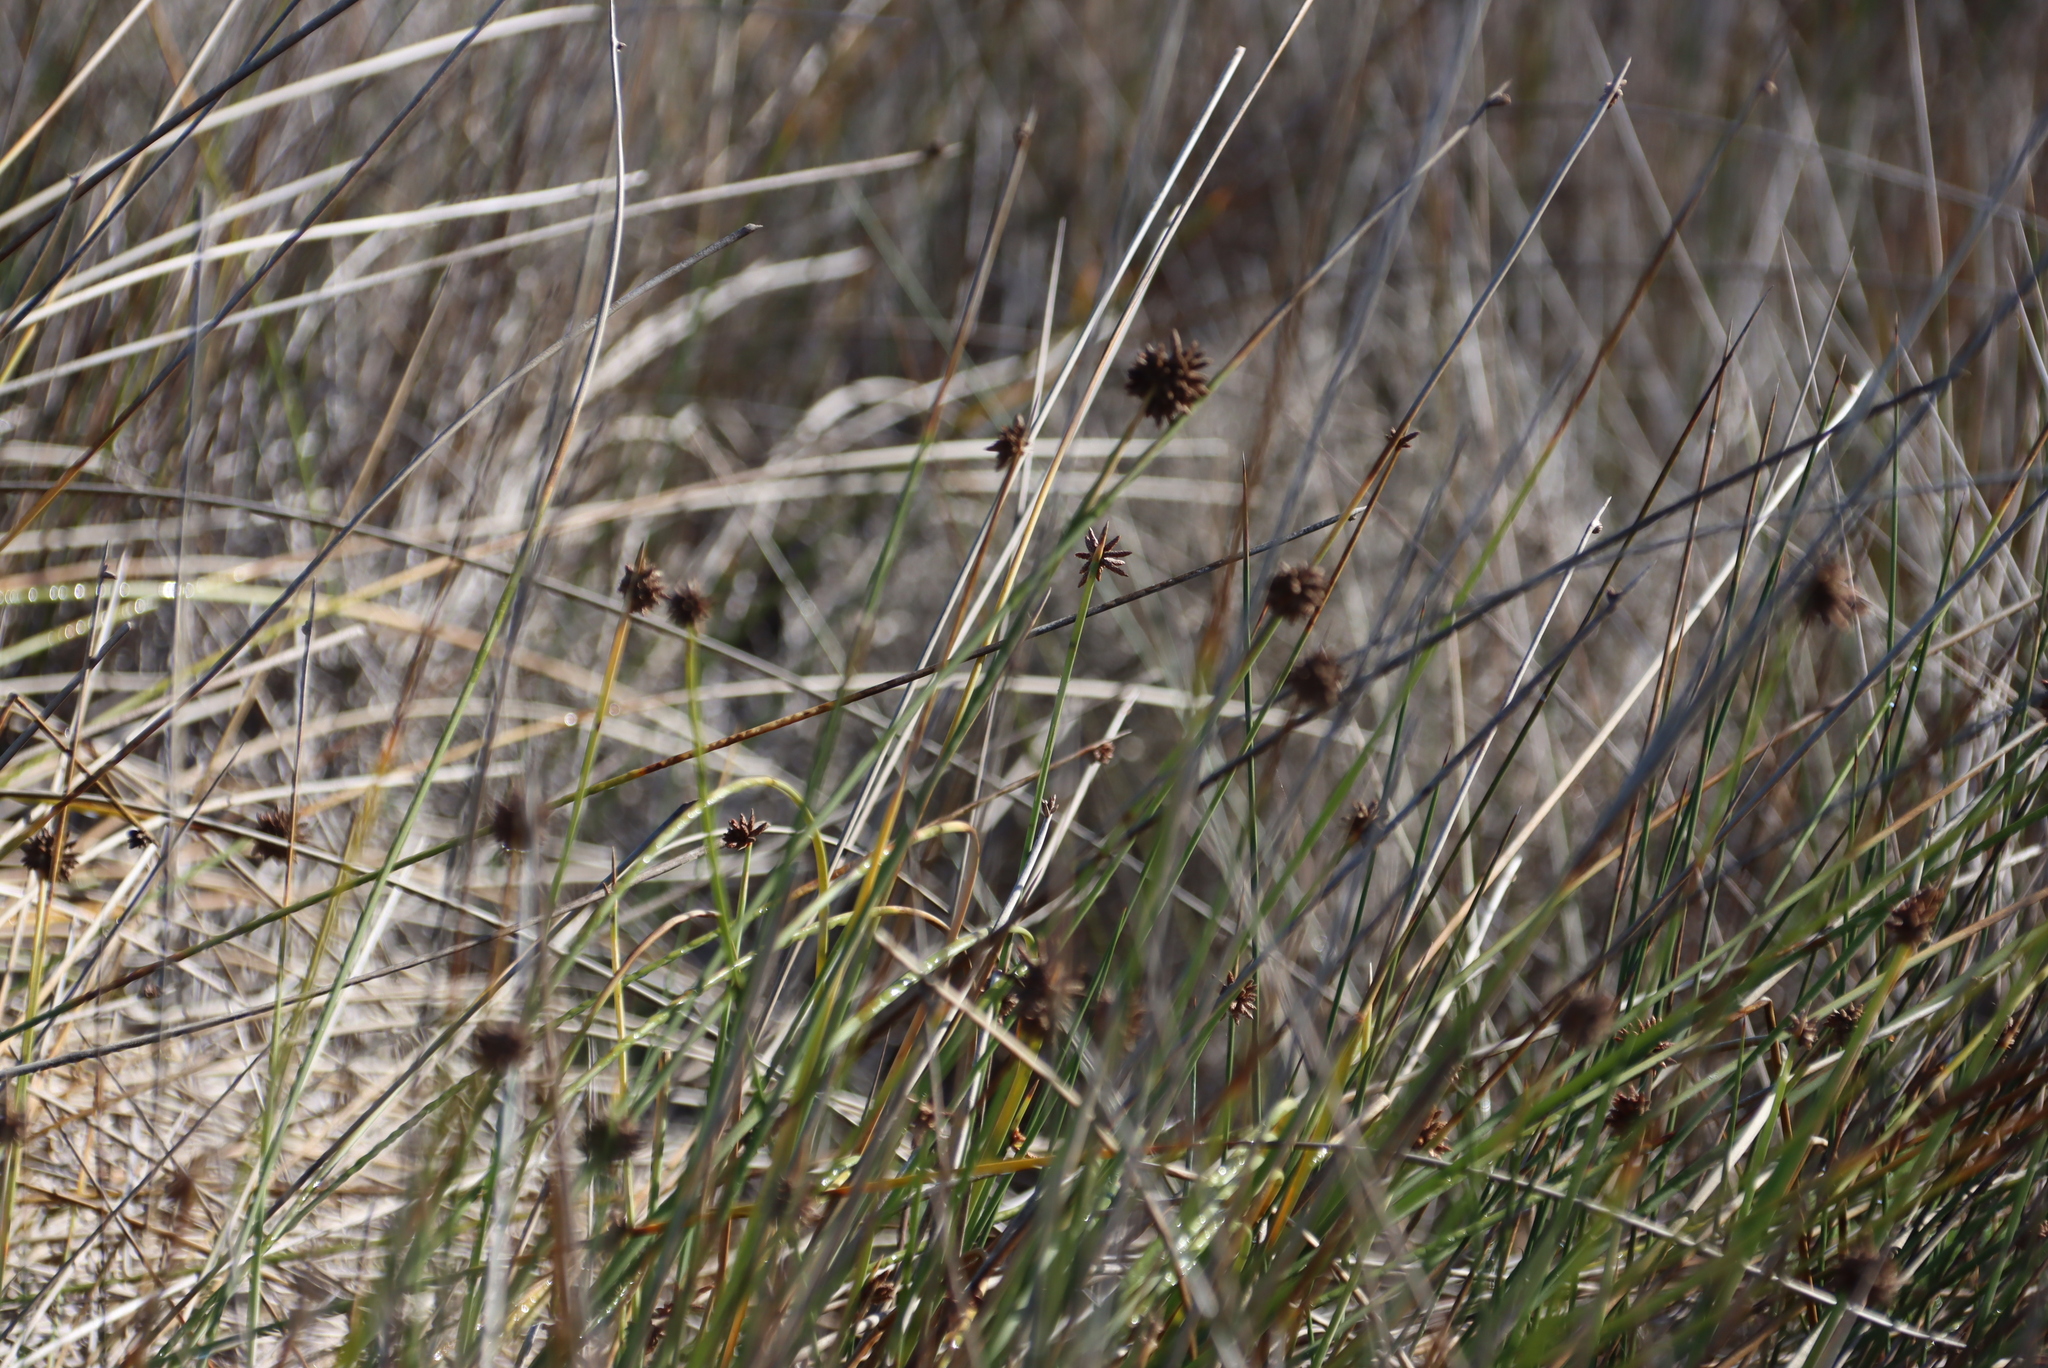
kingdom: Plantae
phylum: Tracheophyta
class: Liliopsida
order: Poales
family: Cyperaceae
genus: Ficinia
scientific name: Ficinia nodosa
